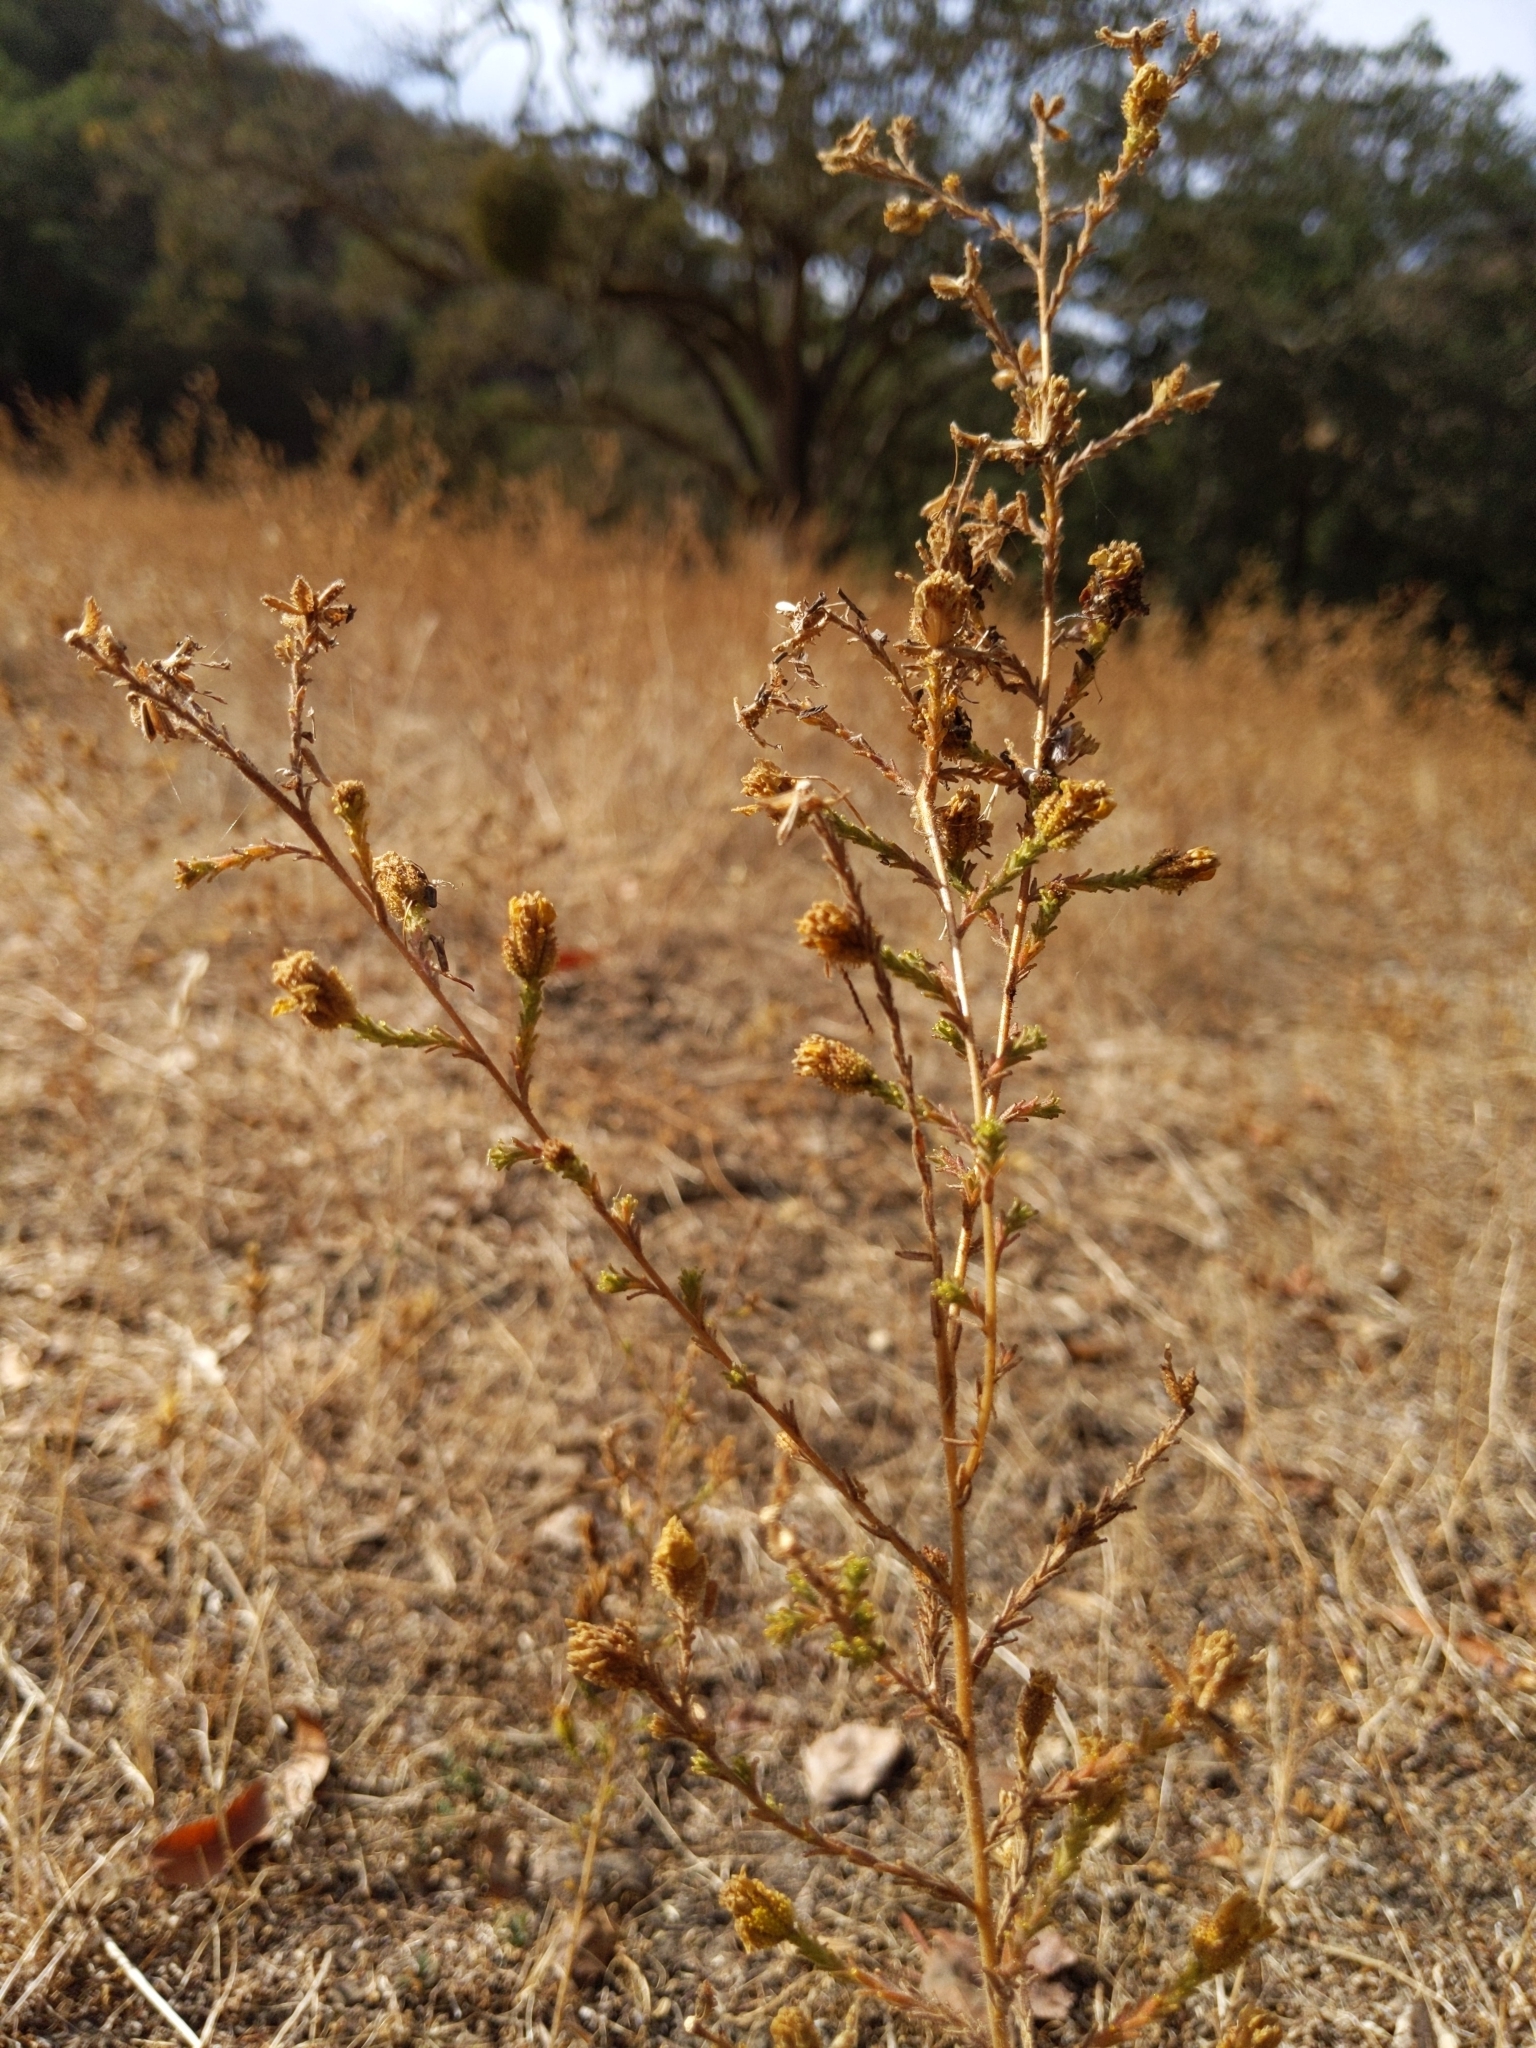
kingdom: Plantae
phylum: Tracheophyta
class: Magnoliopsida
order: Asterales
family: Asteraceae
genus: Holocarpha
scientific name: Holocarpha heermannii
